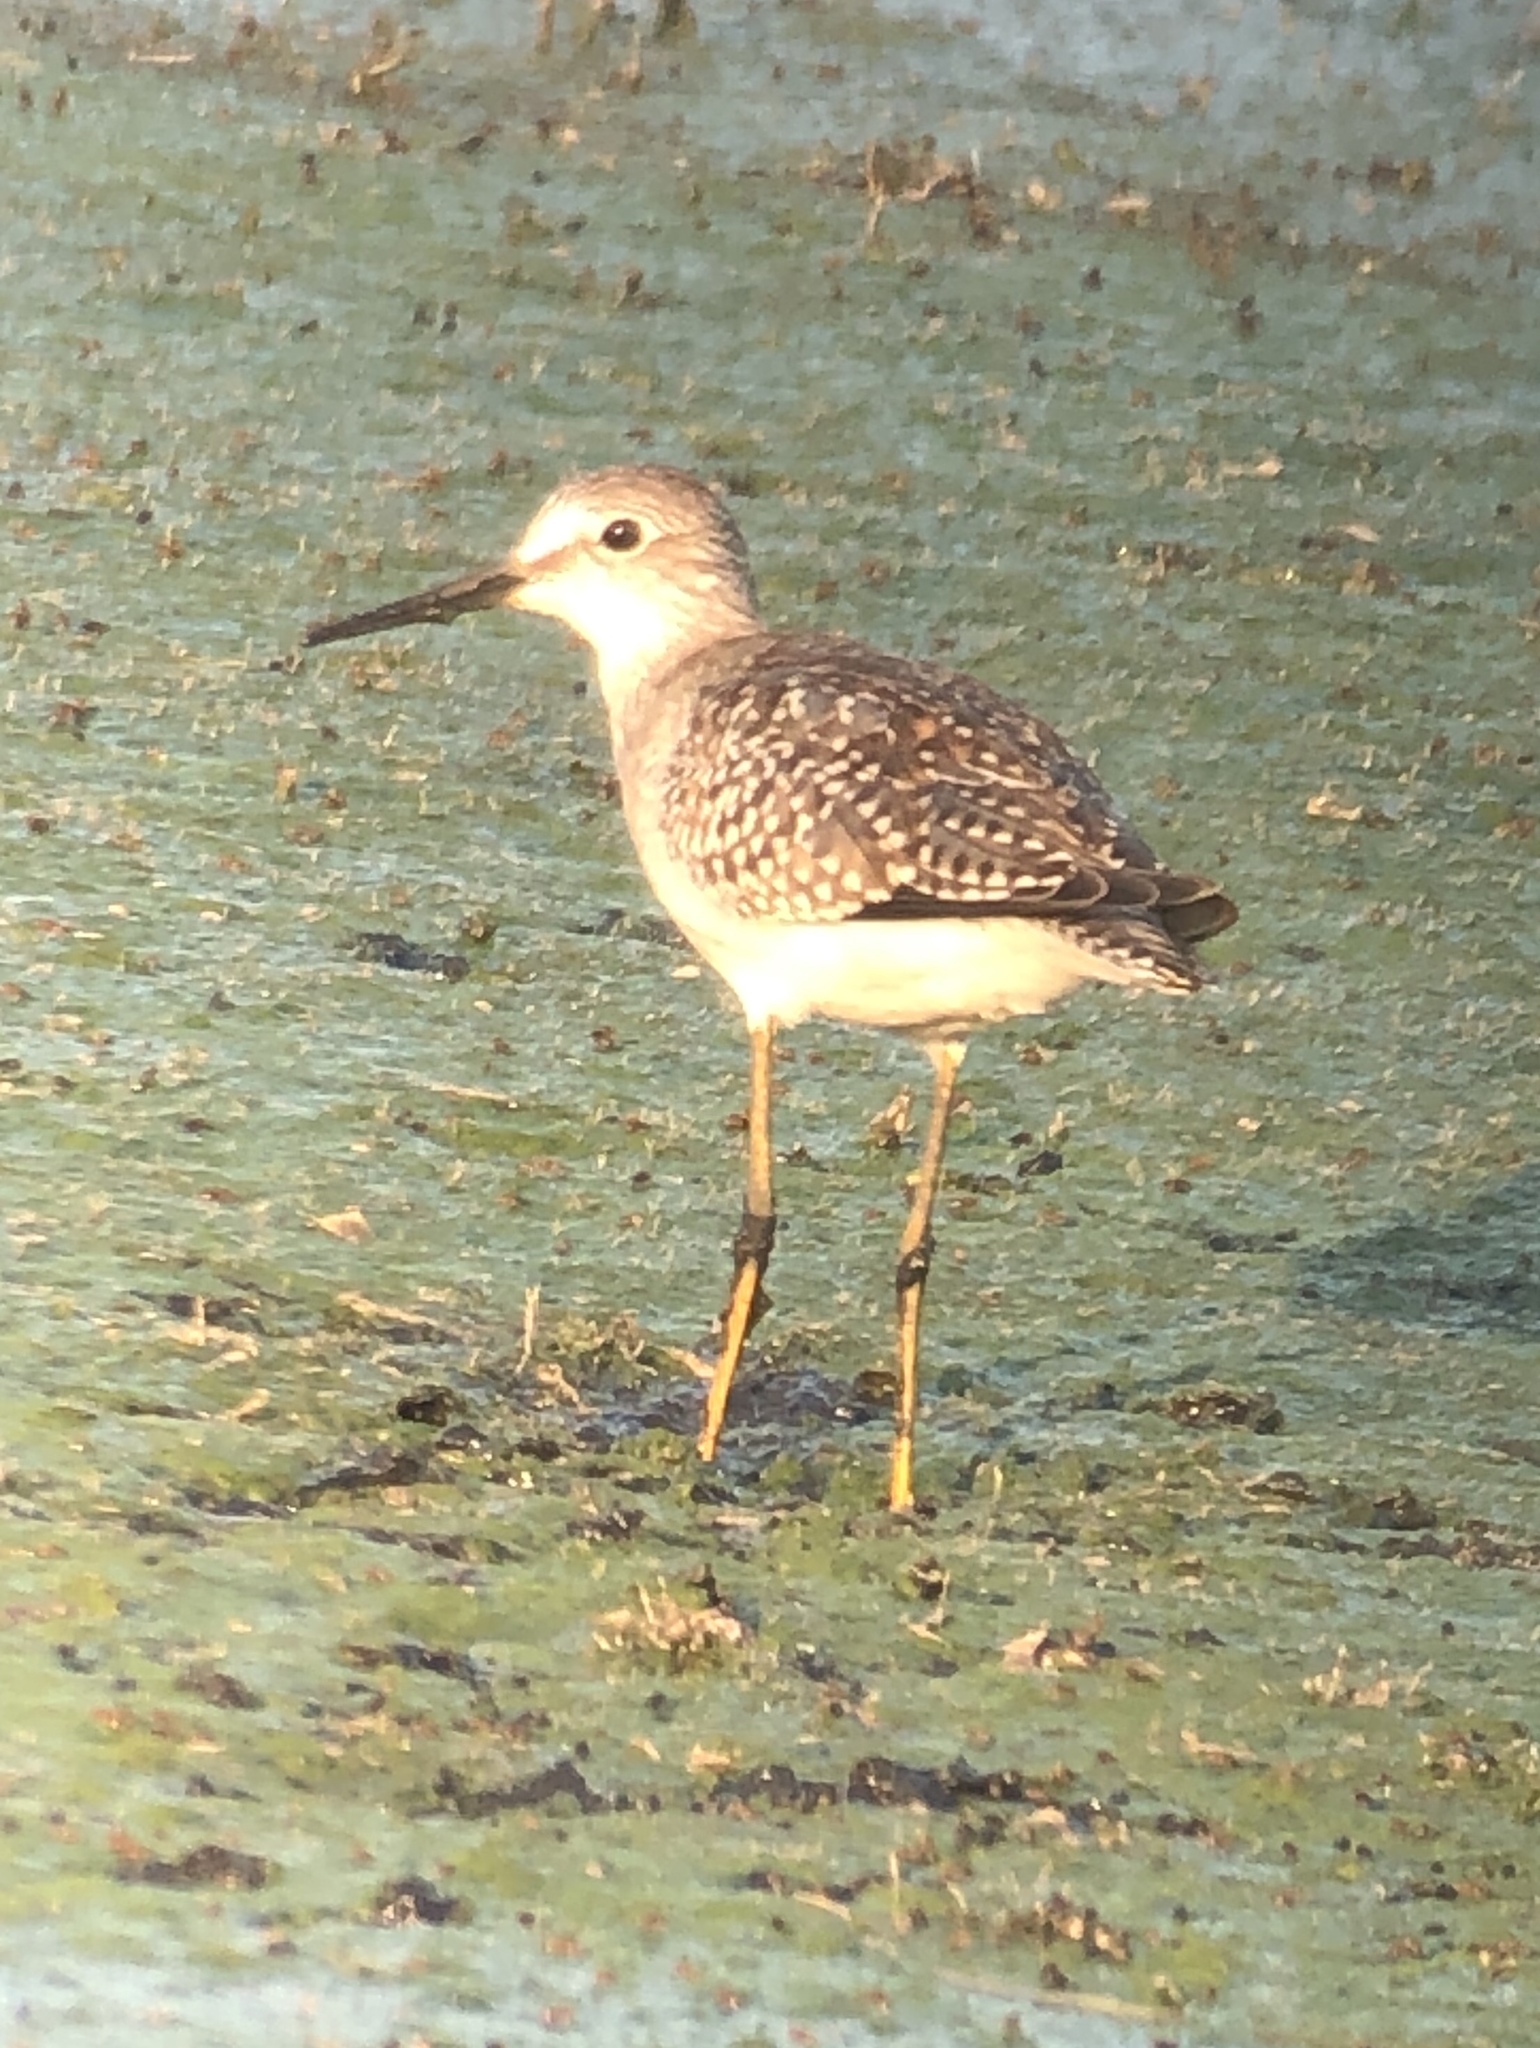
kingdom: Animalia
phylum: Chordata
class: Aves
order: Charadriiformes
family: Scolopacidae
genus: Tringa
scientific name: Tringa flavipes
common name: Lesser yellowlegs
